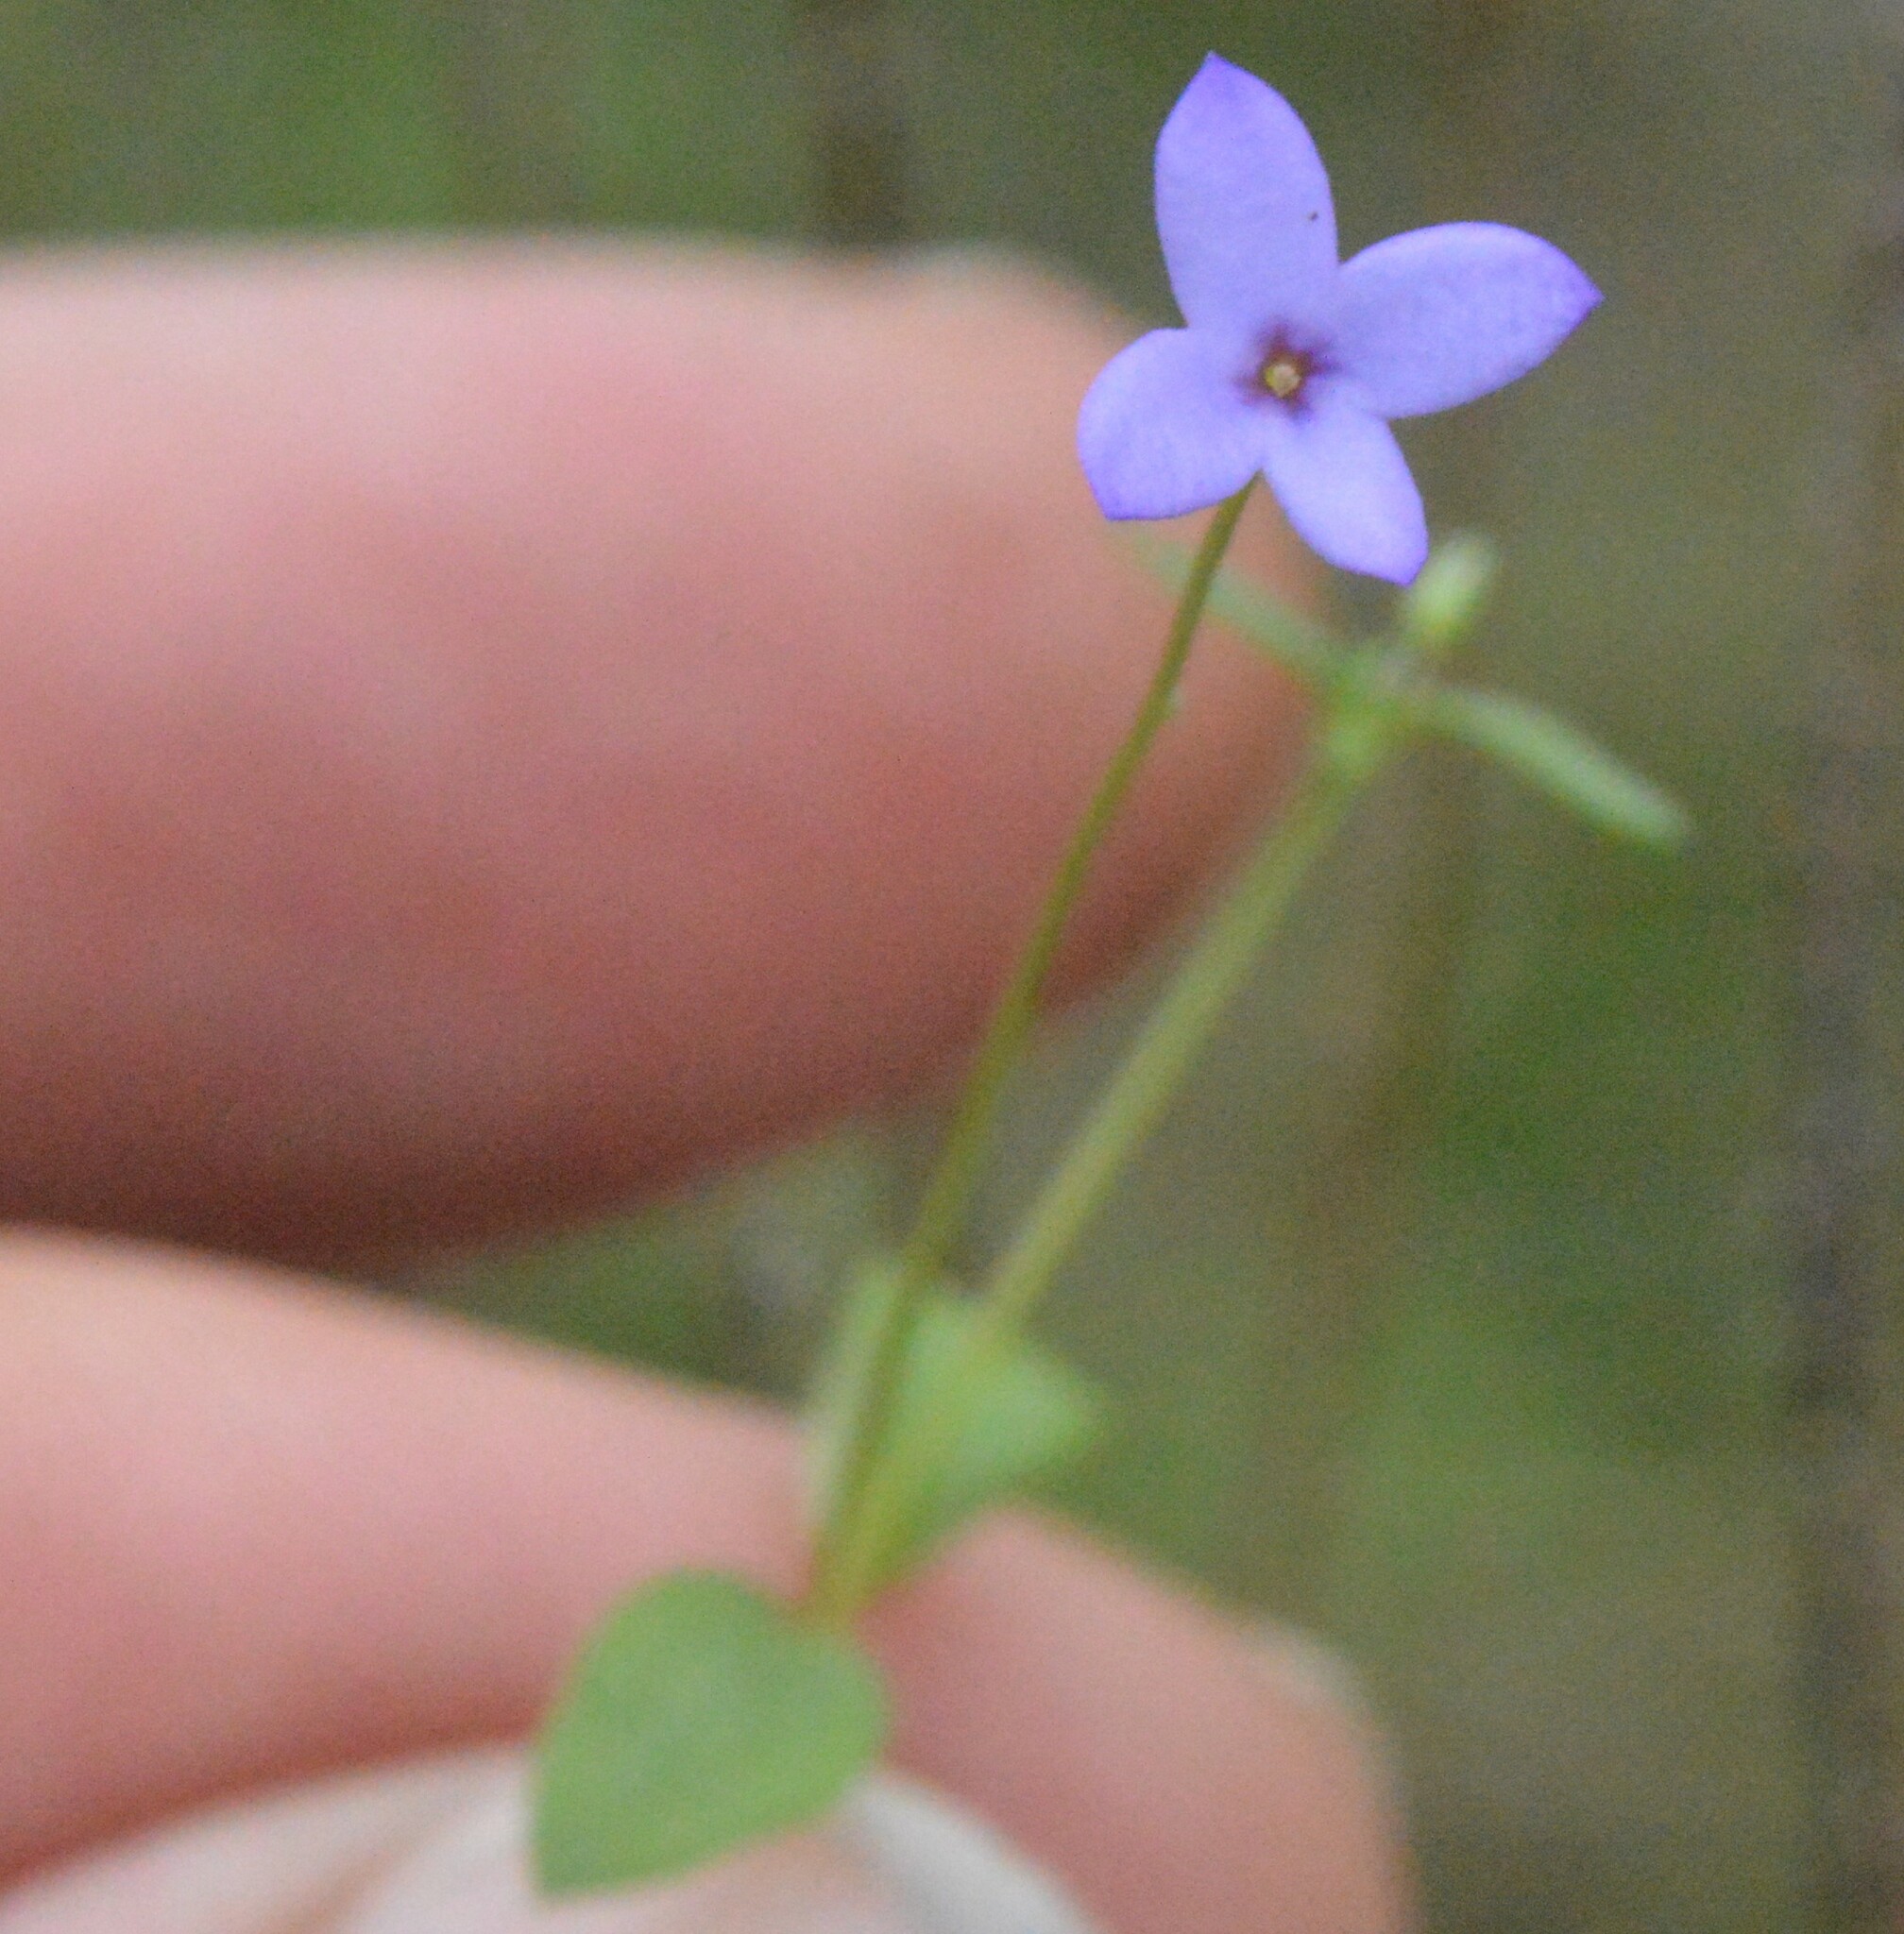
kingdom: Plantae
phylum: Tracheophyta
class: Magnoliopsida
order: Gentianales
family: Rubiaceae
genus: Houstonia
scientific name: Houstonia pusilla
